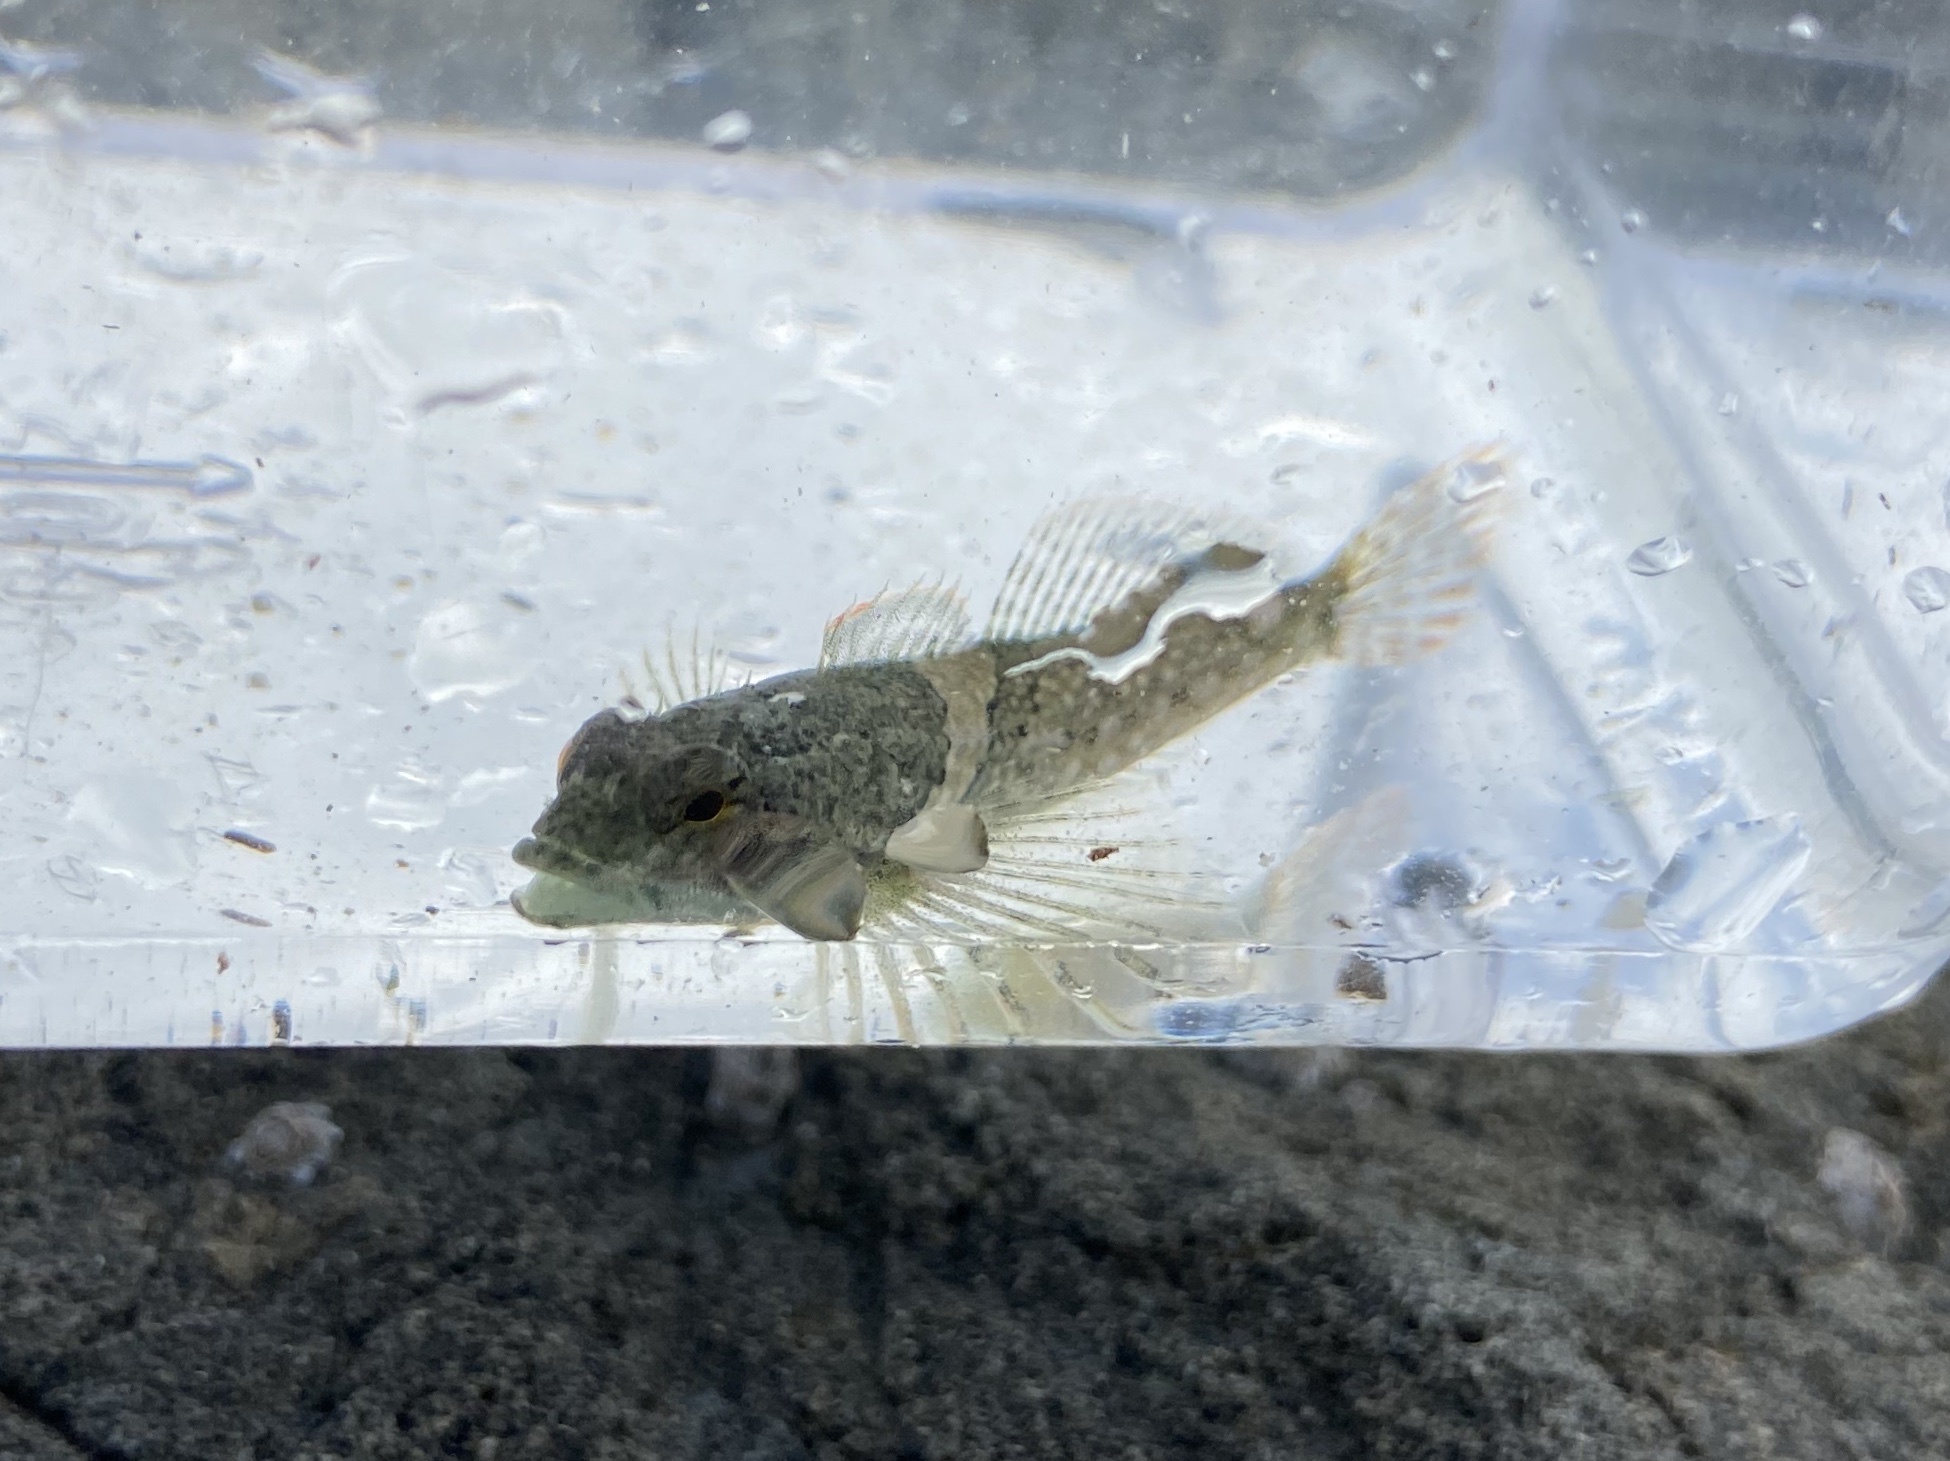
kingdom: Animalia
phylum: Chordata
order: Scorpaeniformes
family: Cottidae
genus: Oligocottus
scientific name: Oligocottus maculosus
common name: Tidepool sculpin
